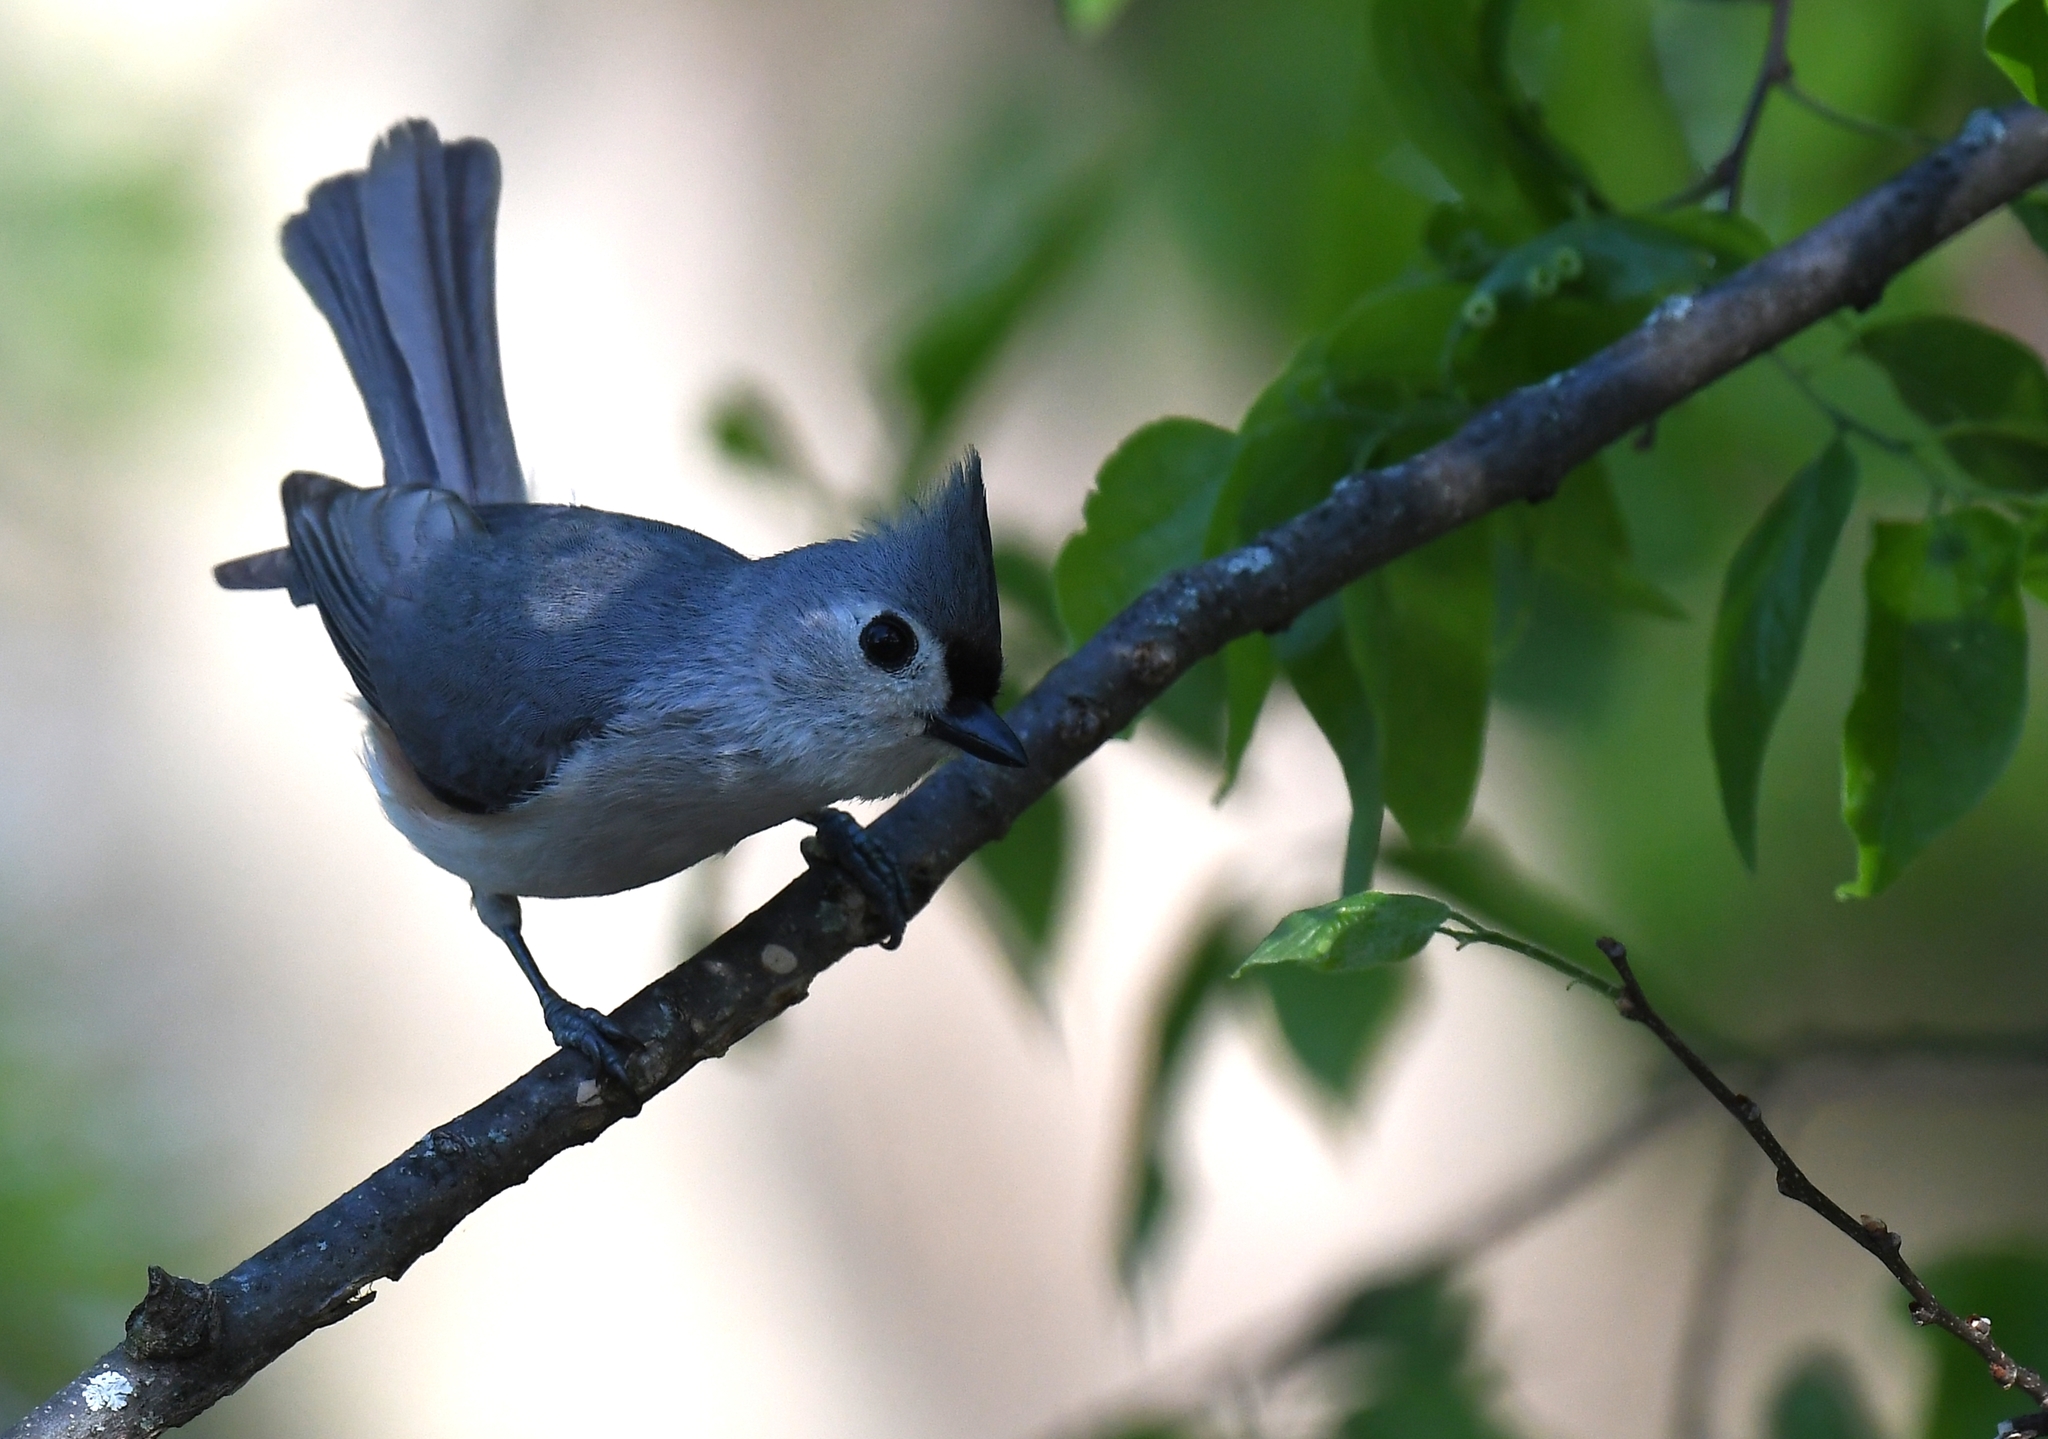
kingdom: Animalia
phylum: Chordata
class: Aves
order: Passeriformes
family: Paridae
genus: Baeolophus
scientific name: Baeolophus bicolor
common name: Tufted titmouse
